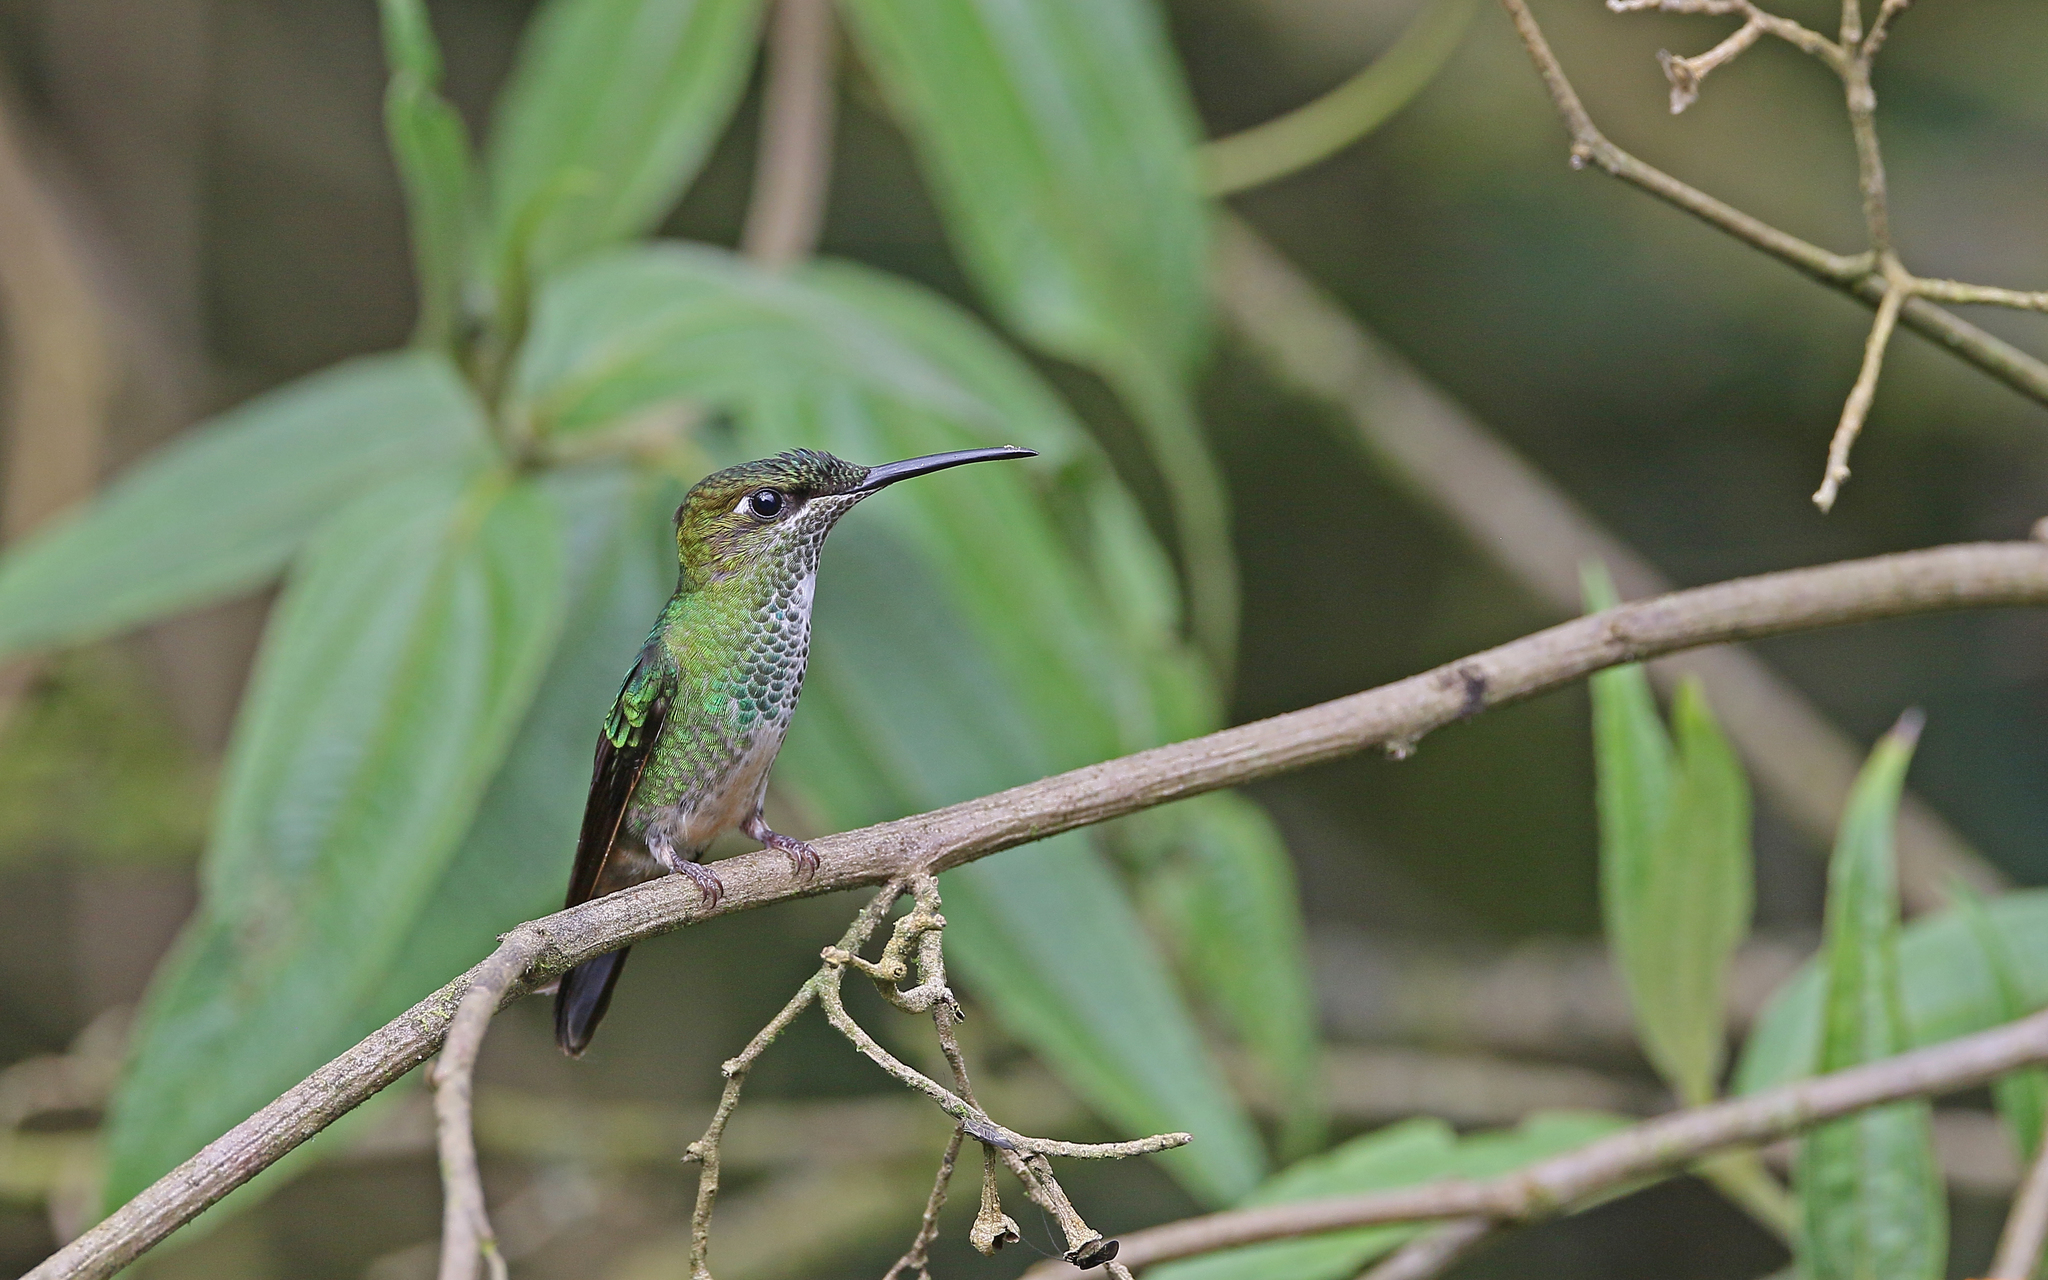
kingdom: Animalia
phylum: Chordata
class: Aves
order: Apodiformes
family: Trochilidae
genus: Heliodoxa
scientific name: Heliodoxa rubinoides
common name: Fawn-breasted brilliant
